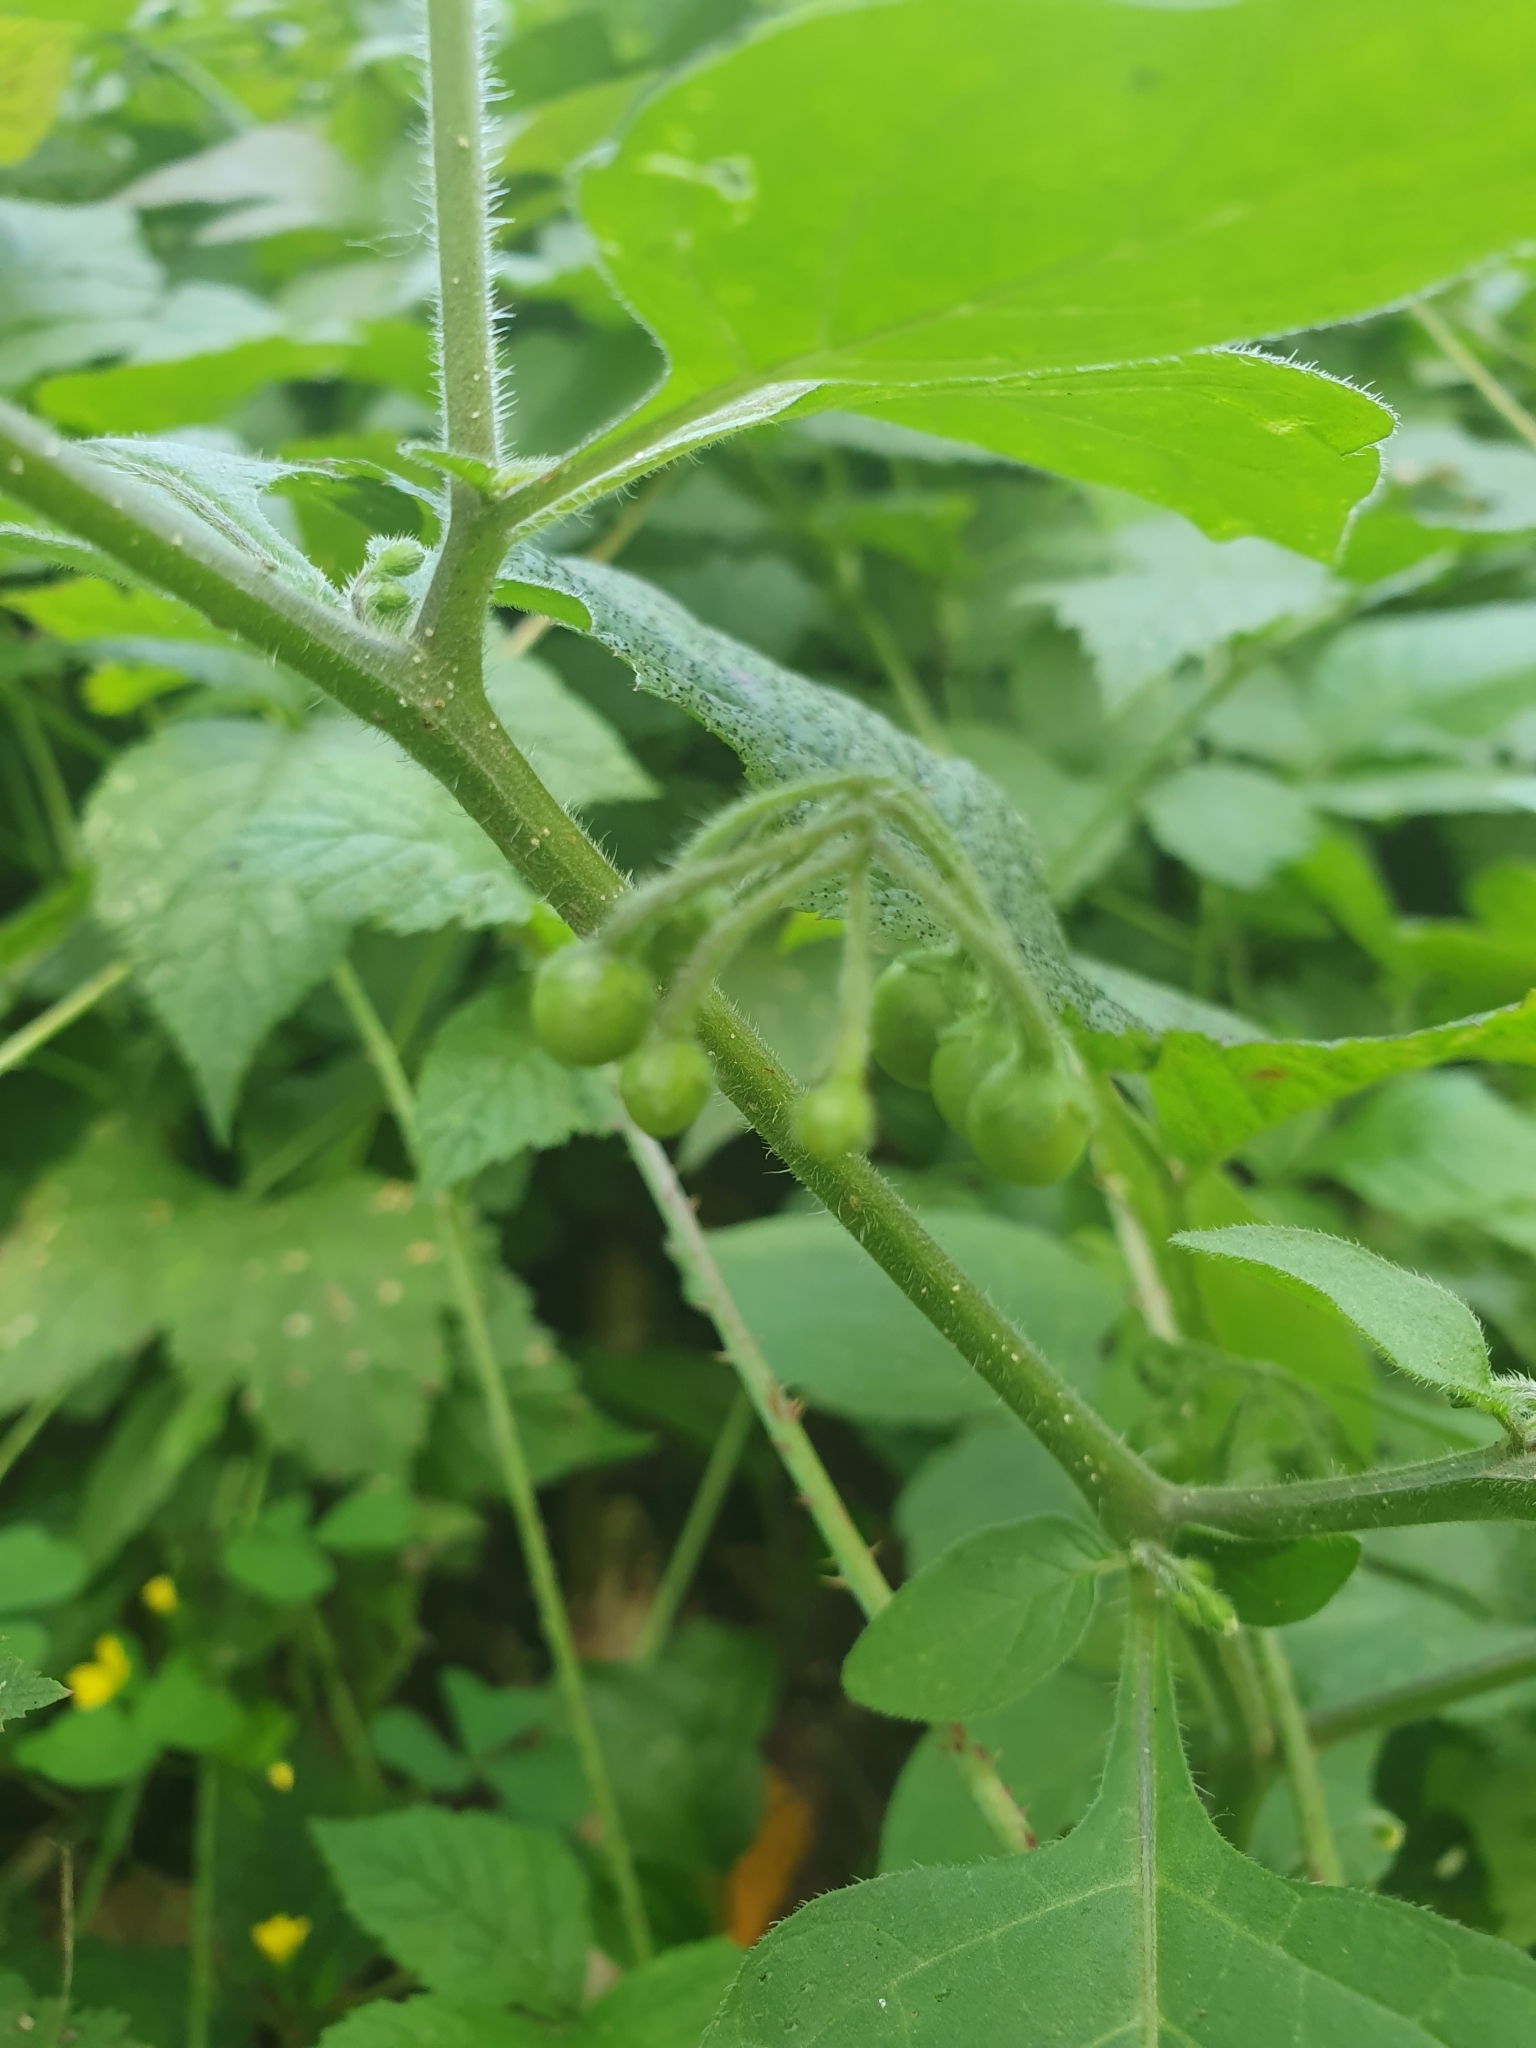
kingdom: Plantae
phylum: Tracheophyta
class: Magnoliopsida
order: Solanales
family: Solanaceae
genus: Solanum
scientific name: Solanum nigrum
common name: Black nightshade
